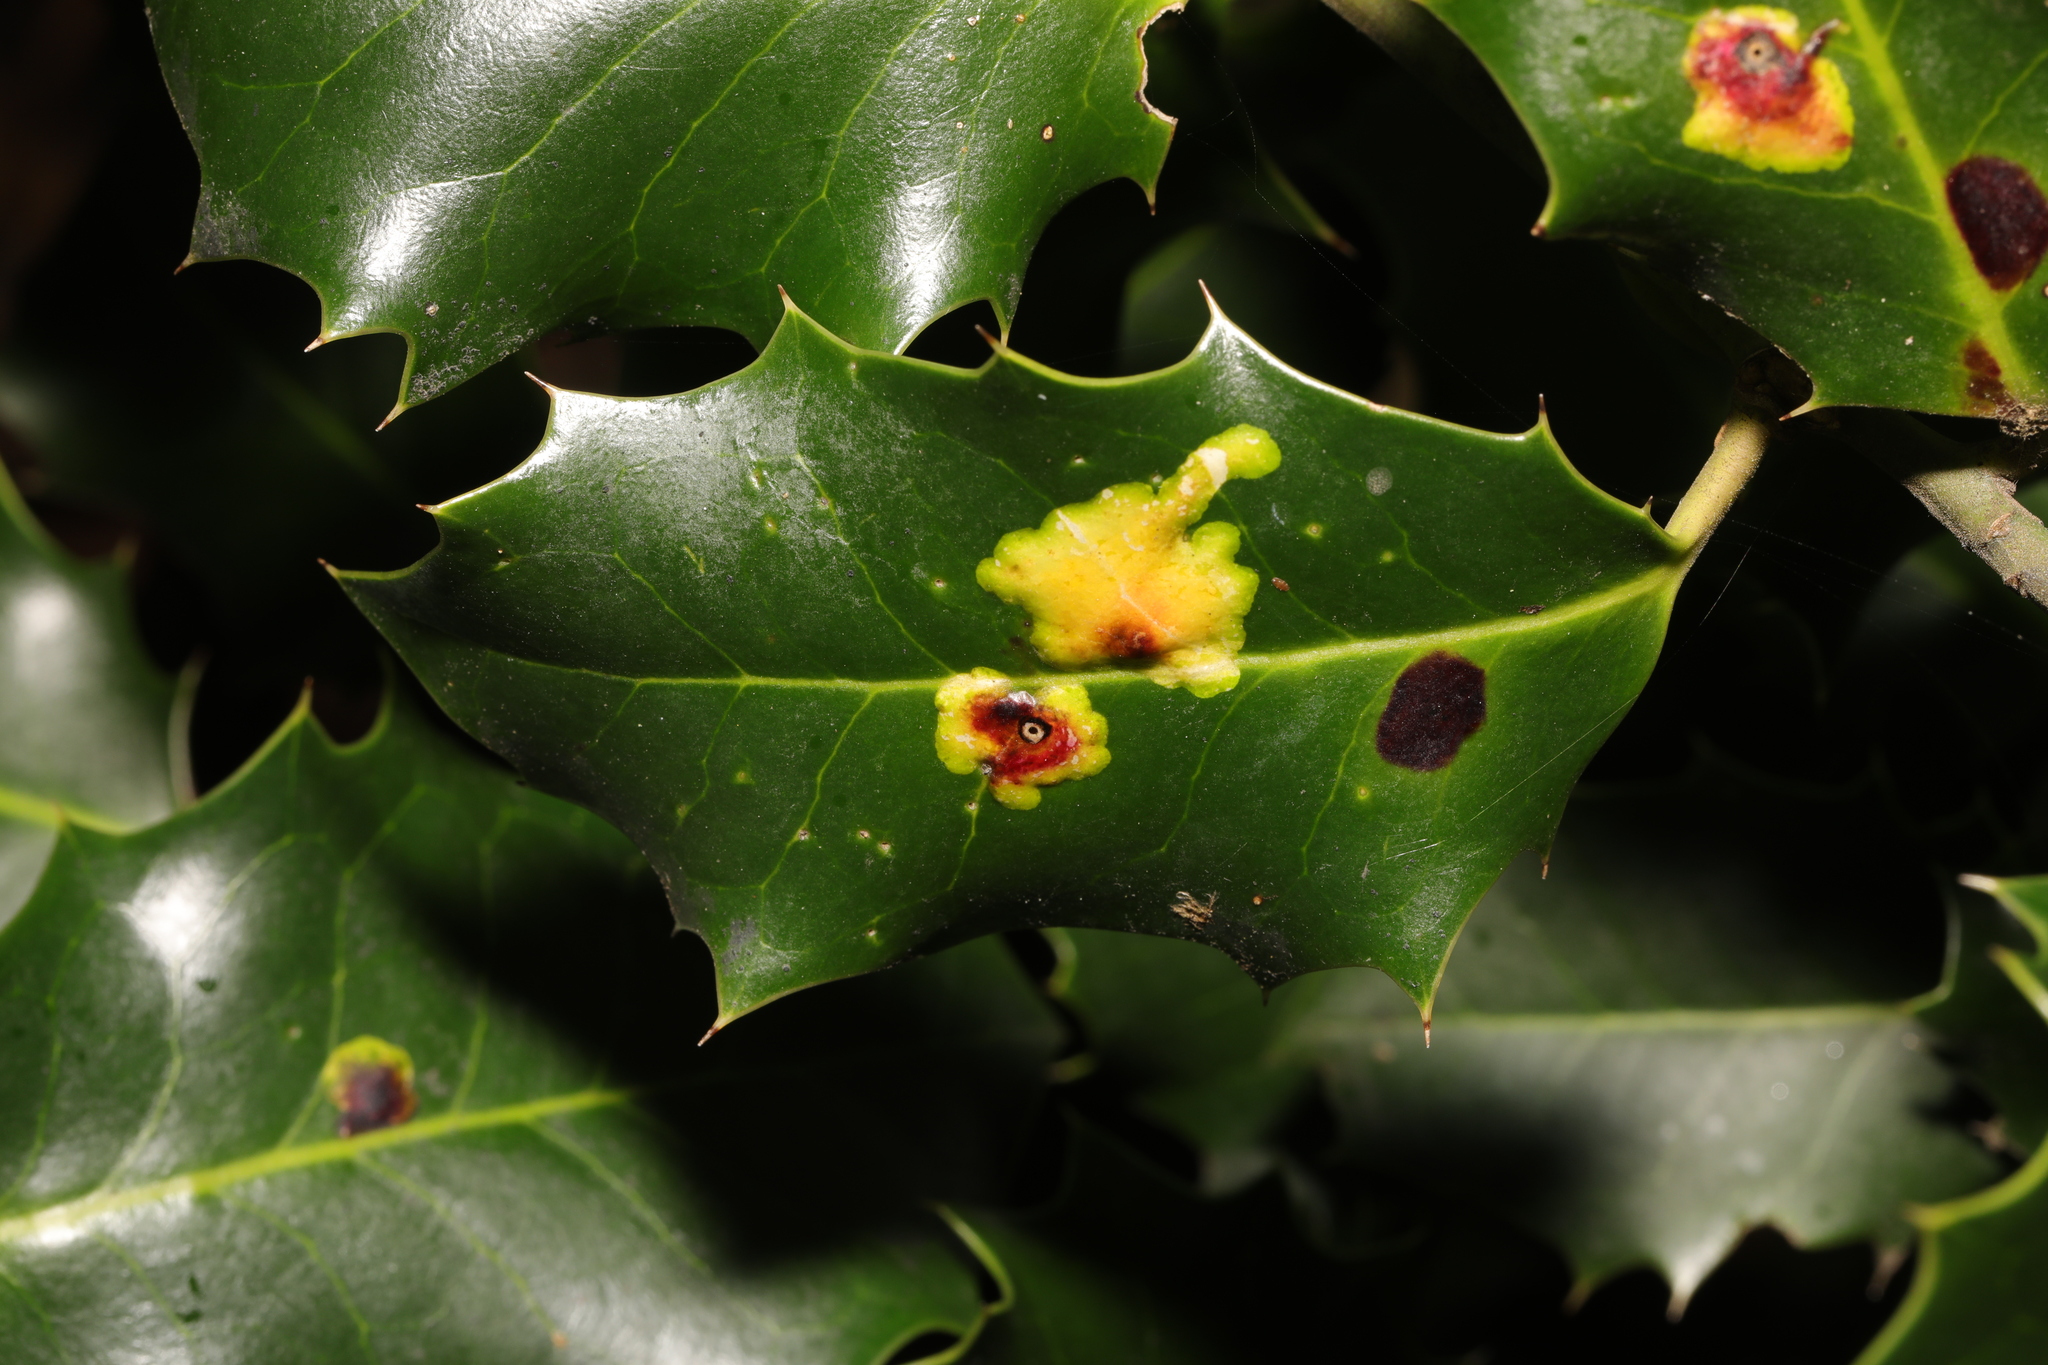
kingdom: Animalia
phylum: Arthropoda
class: Insecta
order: Diptera
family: Agromyzidae
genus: Phytomyza
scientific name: Phytomyza ilicis
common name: Holly leafminer
